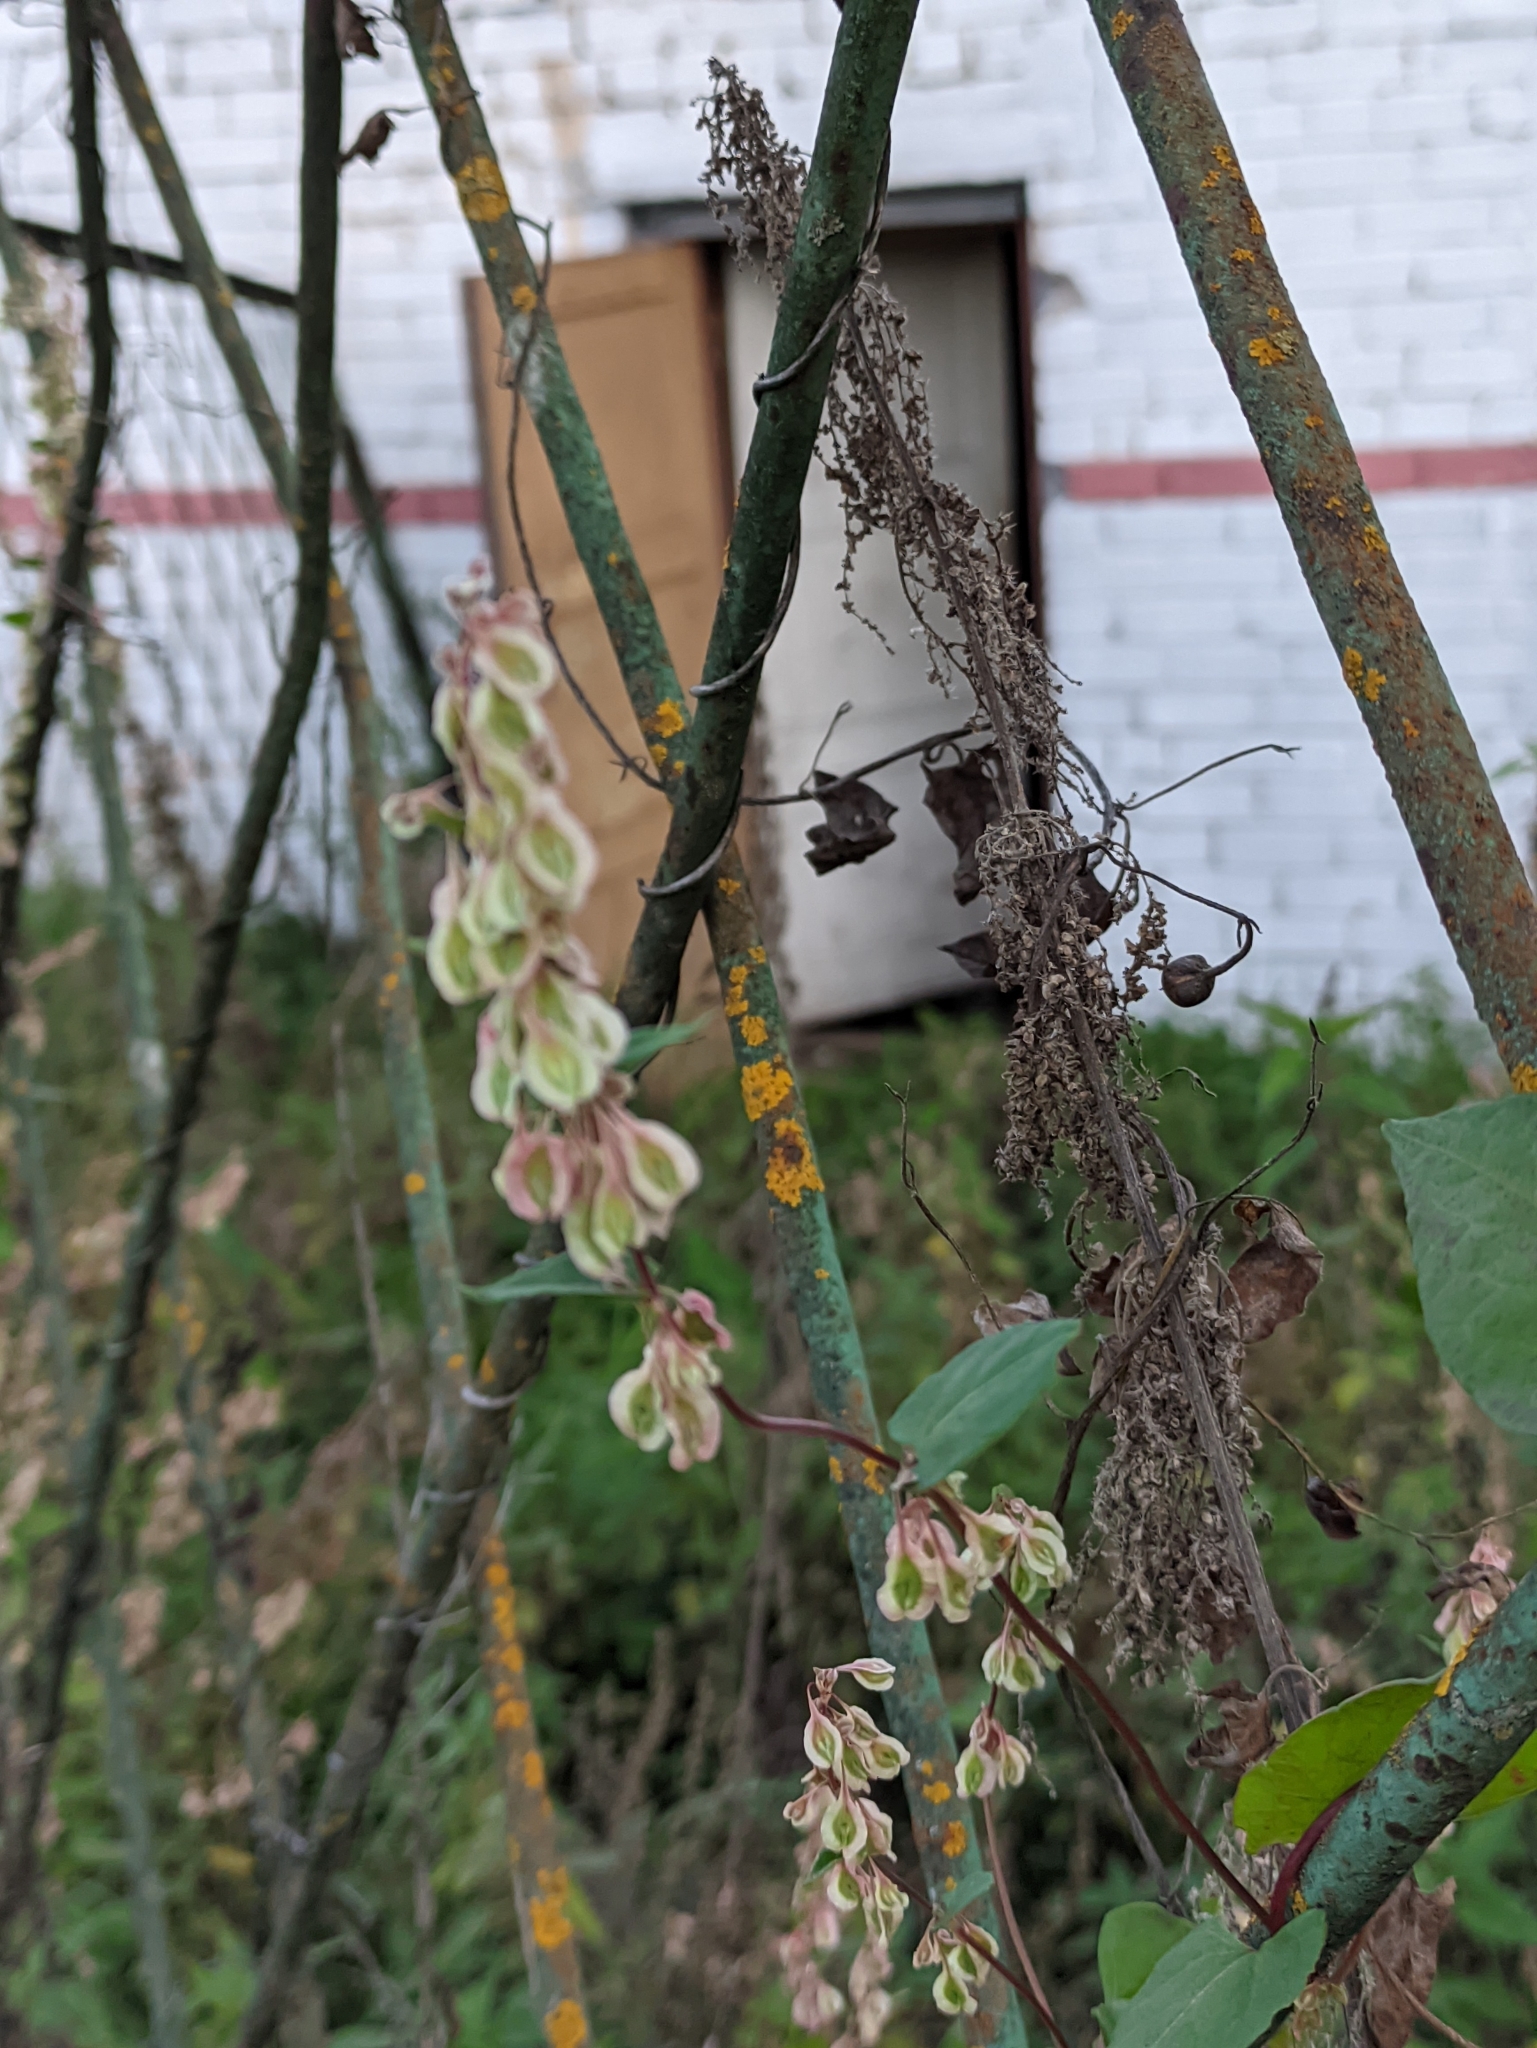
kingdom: Plantae
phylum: Tracheophyta
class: Magnoliopsida
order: Caryophyllales
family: Polygonaceae
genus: Fallopia
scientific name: Fallopia dumetorum
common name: Copse-bindweed
